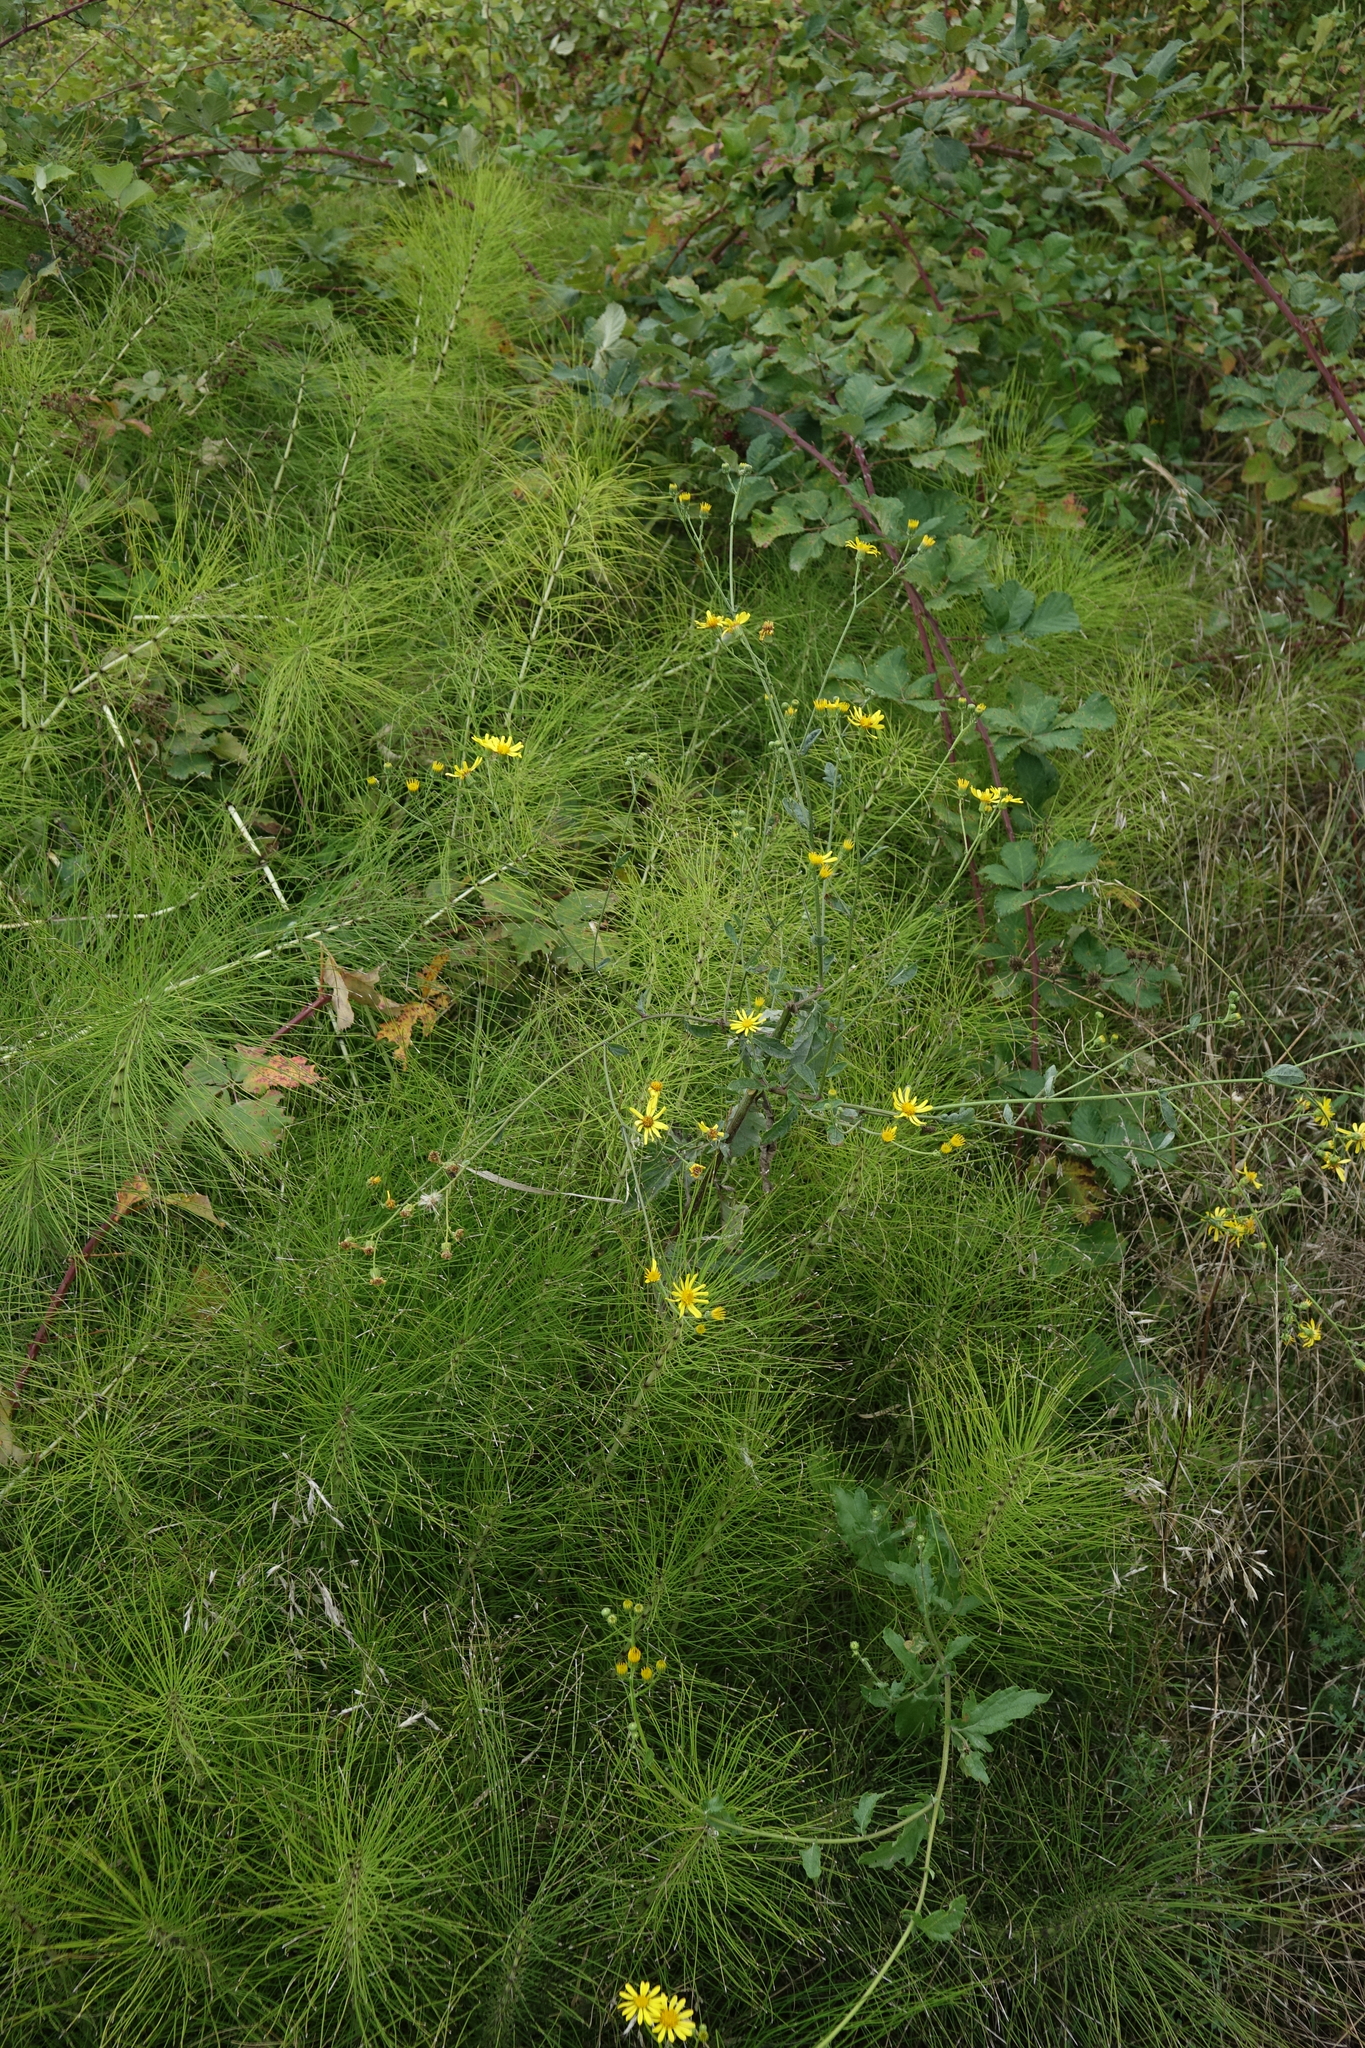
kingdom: Plantae
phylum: Tracheophyta
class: Polypodiopsida
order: Equisetales
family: Equisetaceae
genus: Equisetum
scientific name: Equisetum telmateia
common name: Great horsetail
